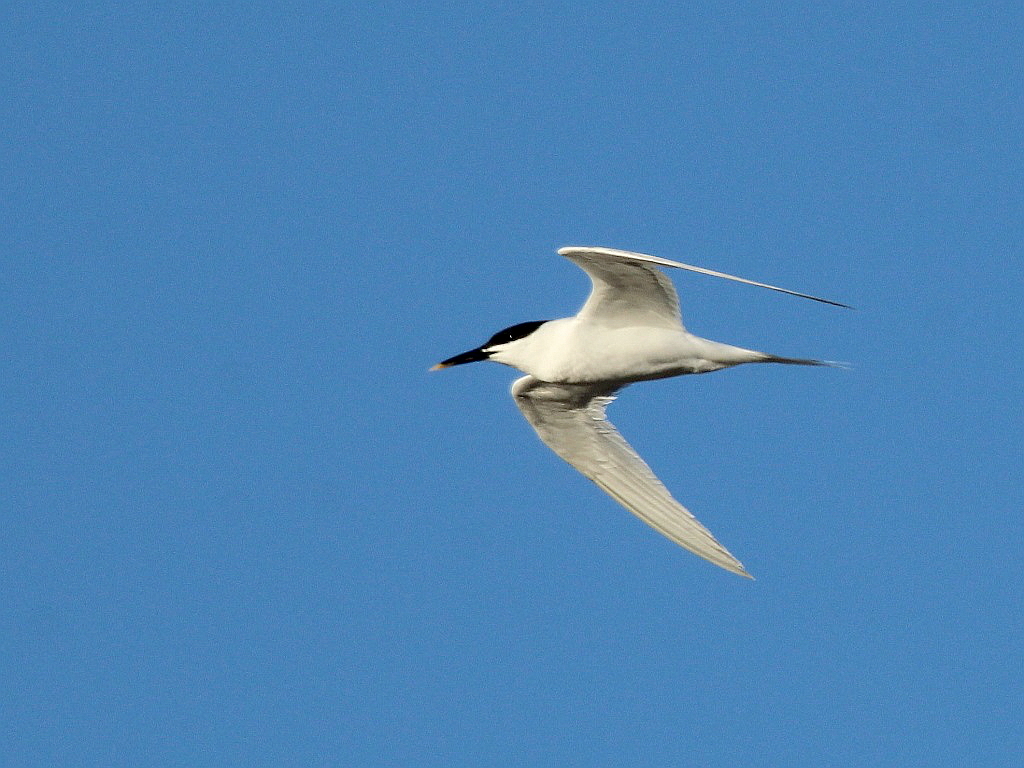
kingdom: Animalia
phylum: Chordata
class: Aves
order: Charadriiformes
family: Laridae
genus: Thalasseus
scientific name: Thalasseus sandvicensis
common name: Sandwich tern
